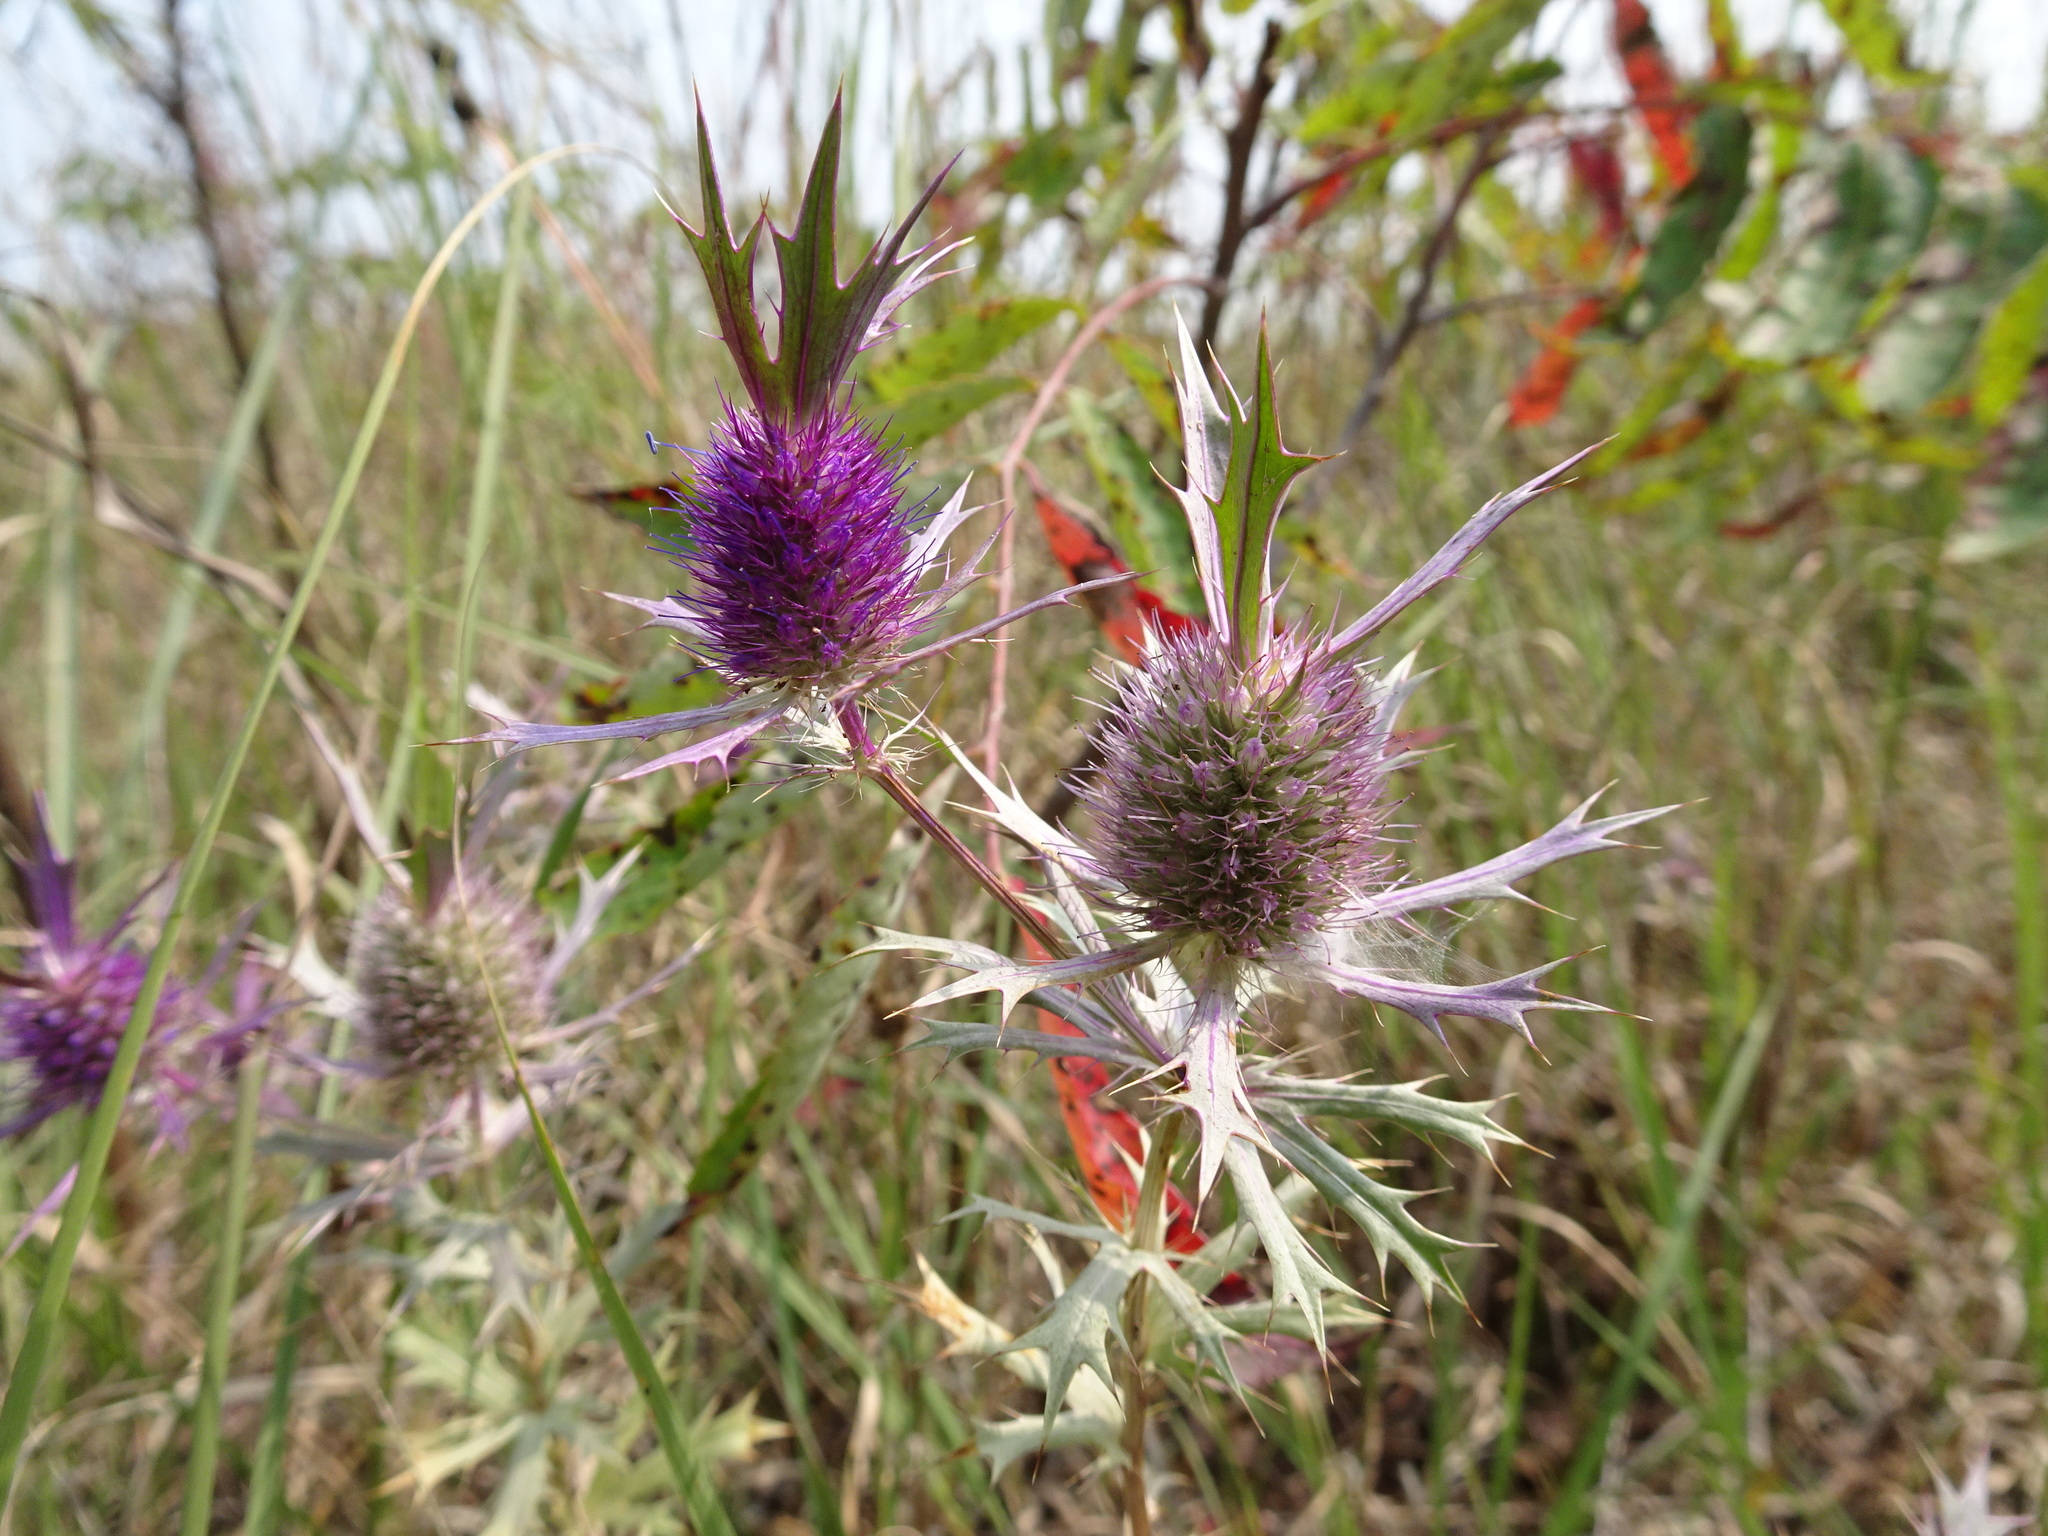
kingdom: Plantae
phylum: Tracheophyta
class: Magnoliopsida
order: Apiales
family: Apiaceae
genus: Eryngium
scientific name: Eryngium leavenworthii
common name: Leavenworth's eryngo
